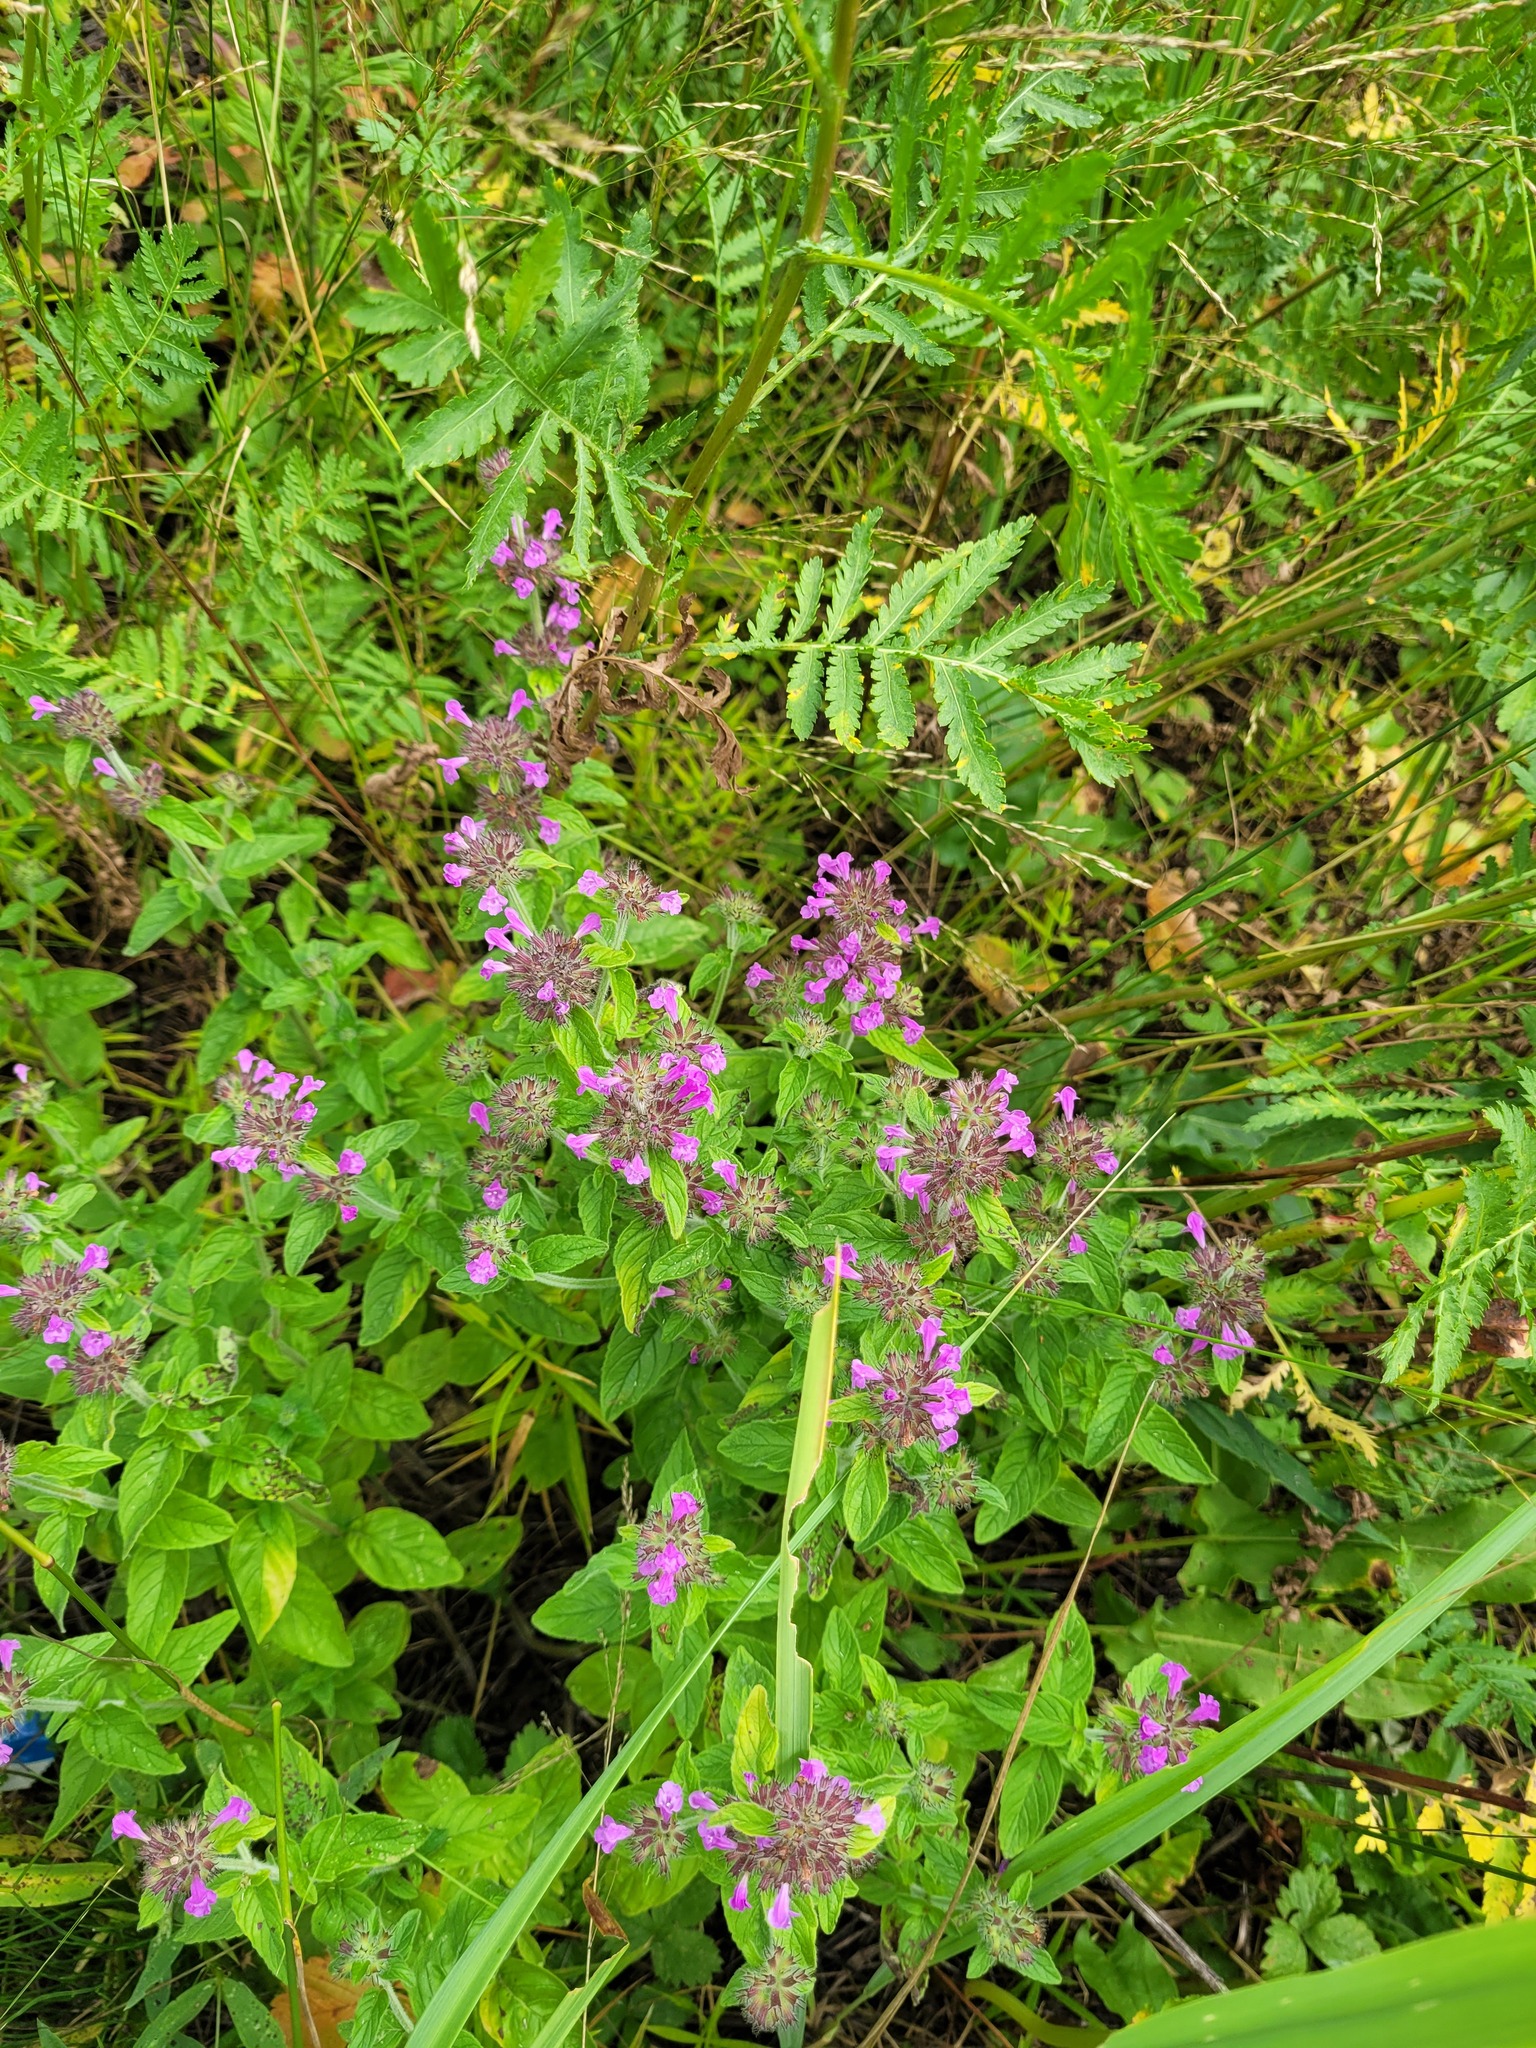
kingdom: Plantae
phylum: Tracheophyta
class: Magnoliopsida
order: Lamiales
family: Lamiaceae
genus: Clinopodium
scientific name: Clinopodium vulgare
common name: Wild basil
